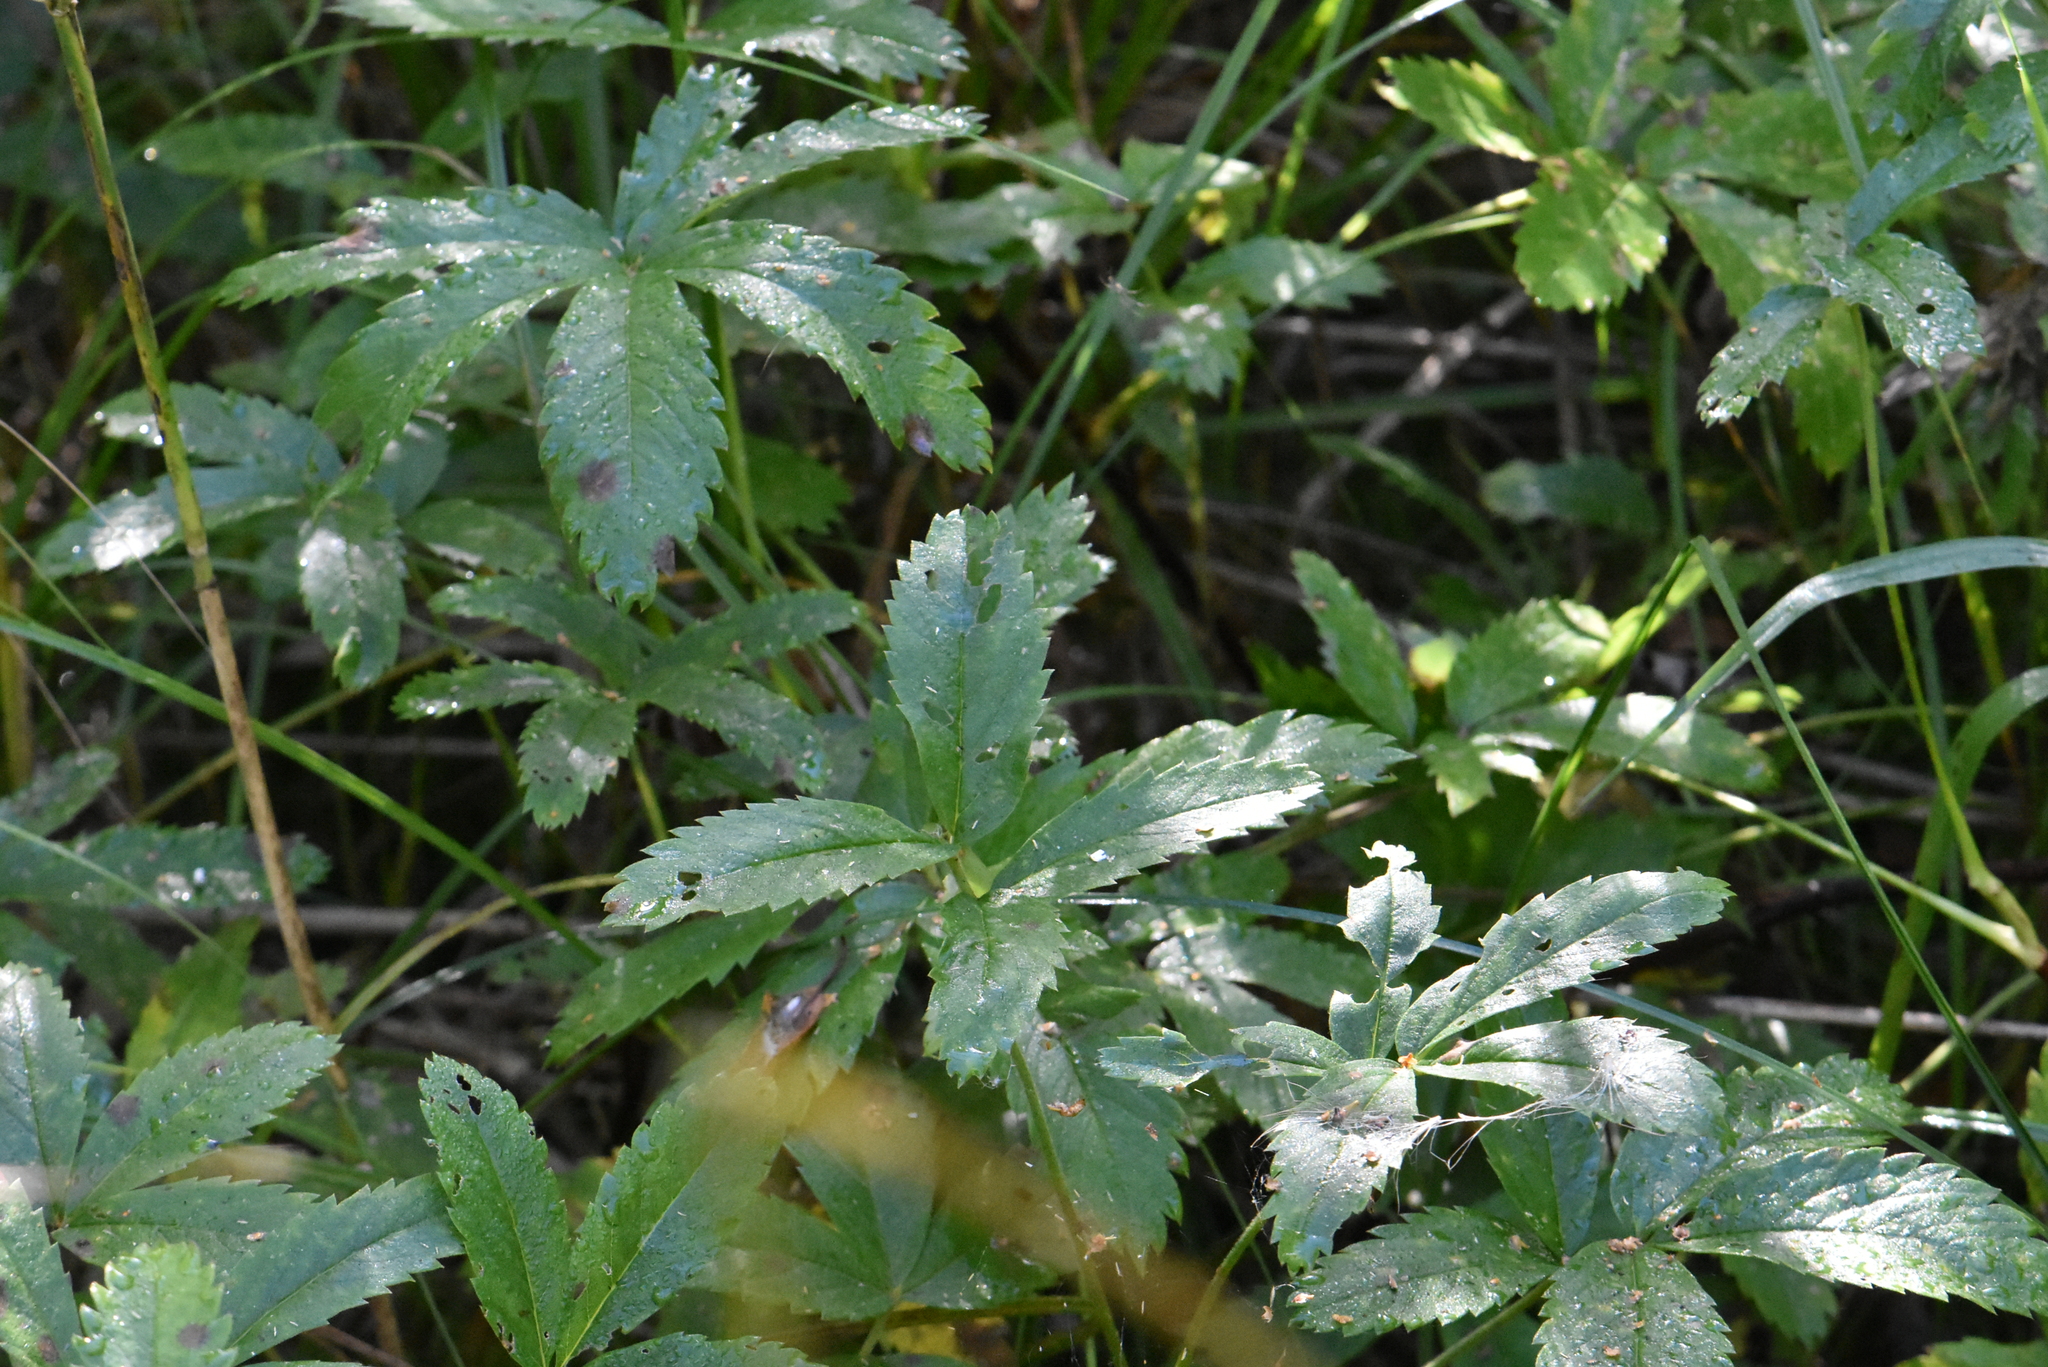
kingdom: Plantae
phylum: Tracheophyta
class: Magnoliopsida
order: Rosales
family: Rosaceae
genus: Comarum
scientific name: Comarum palustre
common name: Marsh cinquefoil
